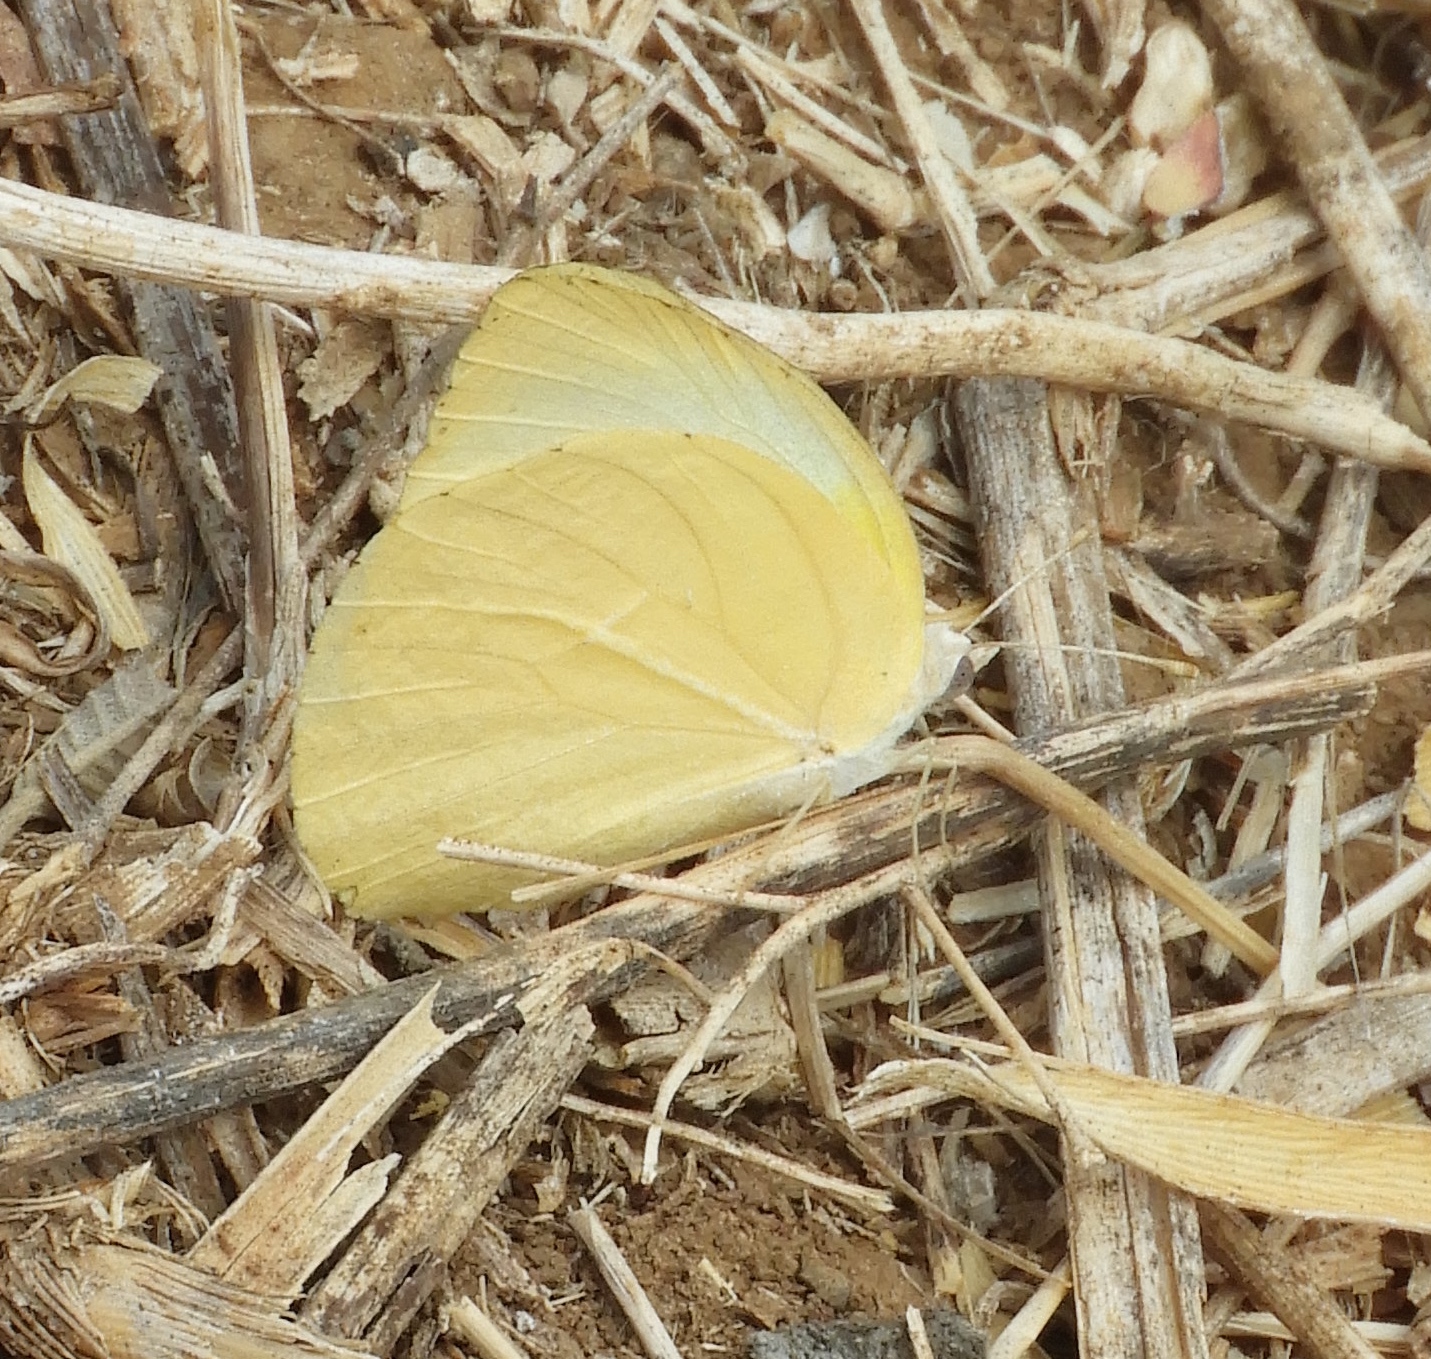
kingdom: Animalia
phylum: Arthropoda
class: Insecta
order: Lepidoptera
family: Pieridae
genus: Kricogonia
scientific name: Kricogonia lyside
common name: Guayacan sulphur,
